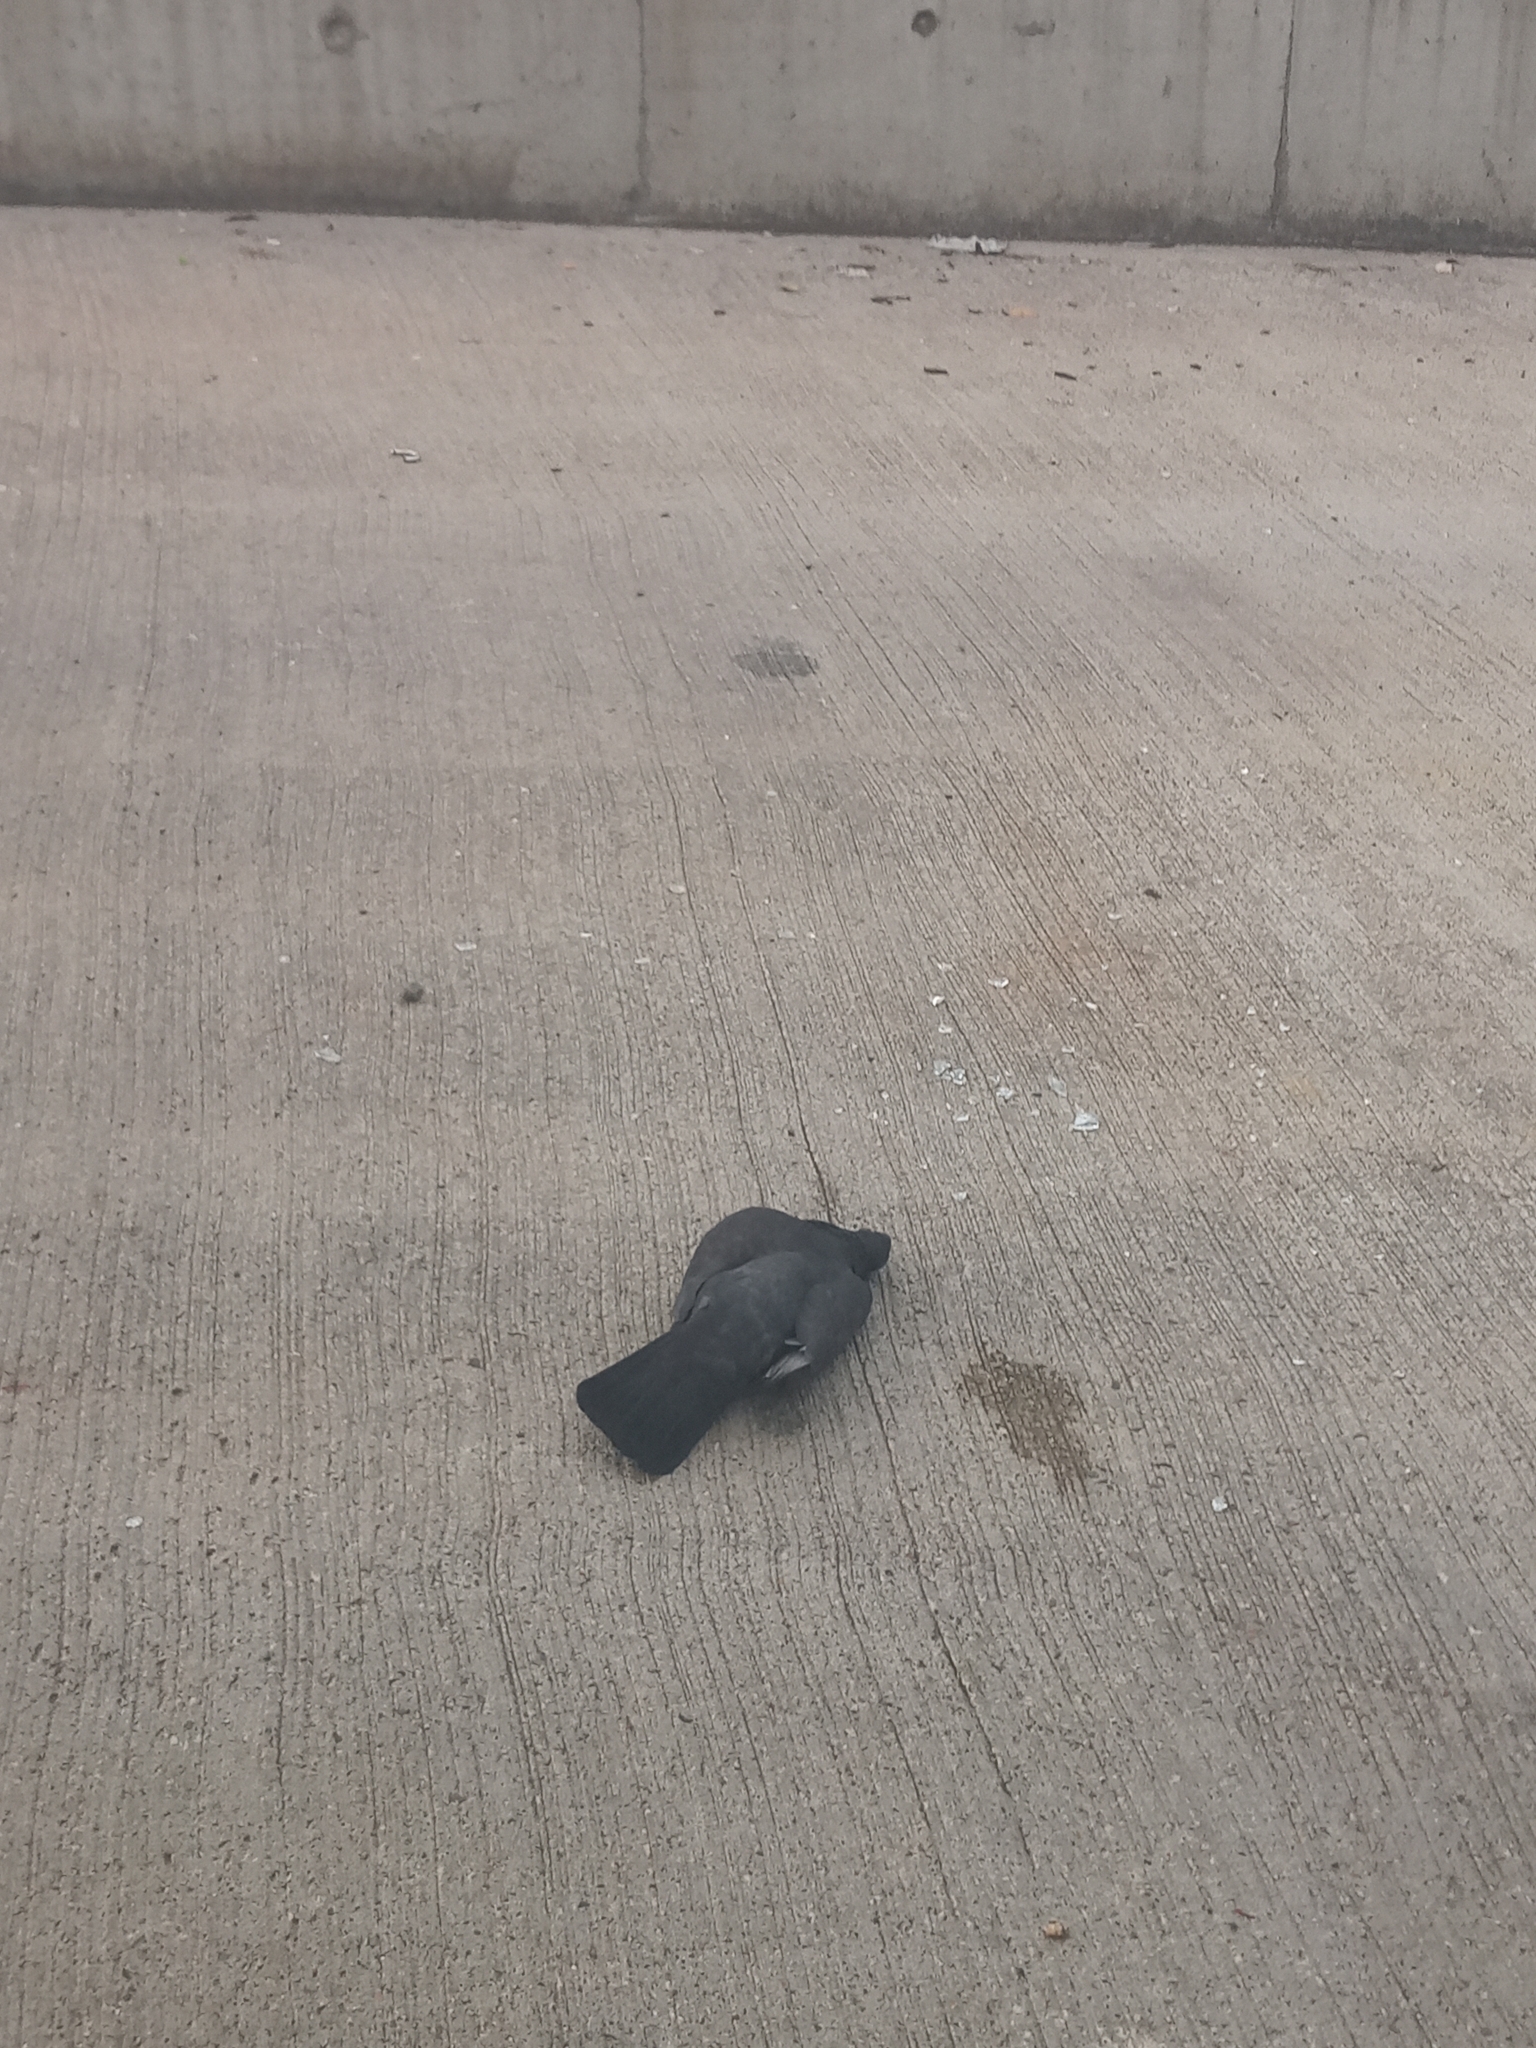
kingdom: Animalia
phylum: Chordata
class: Aves
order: Columbiformes
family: Columbidae
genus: Columba
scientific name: Columba livia
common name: Rock pigeon
